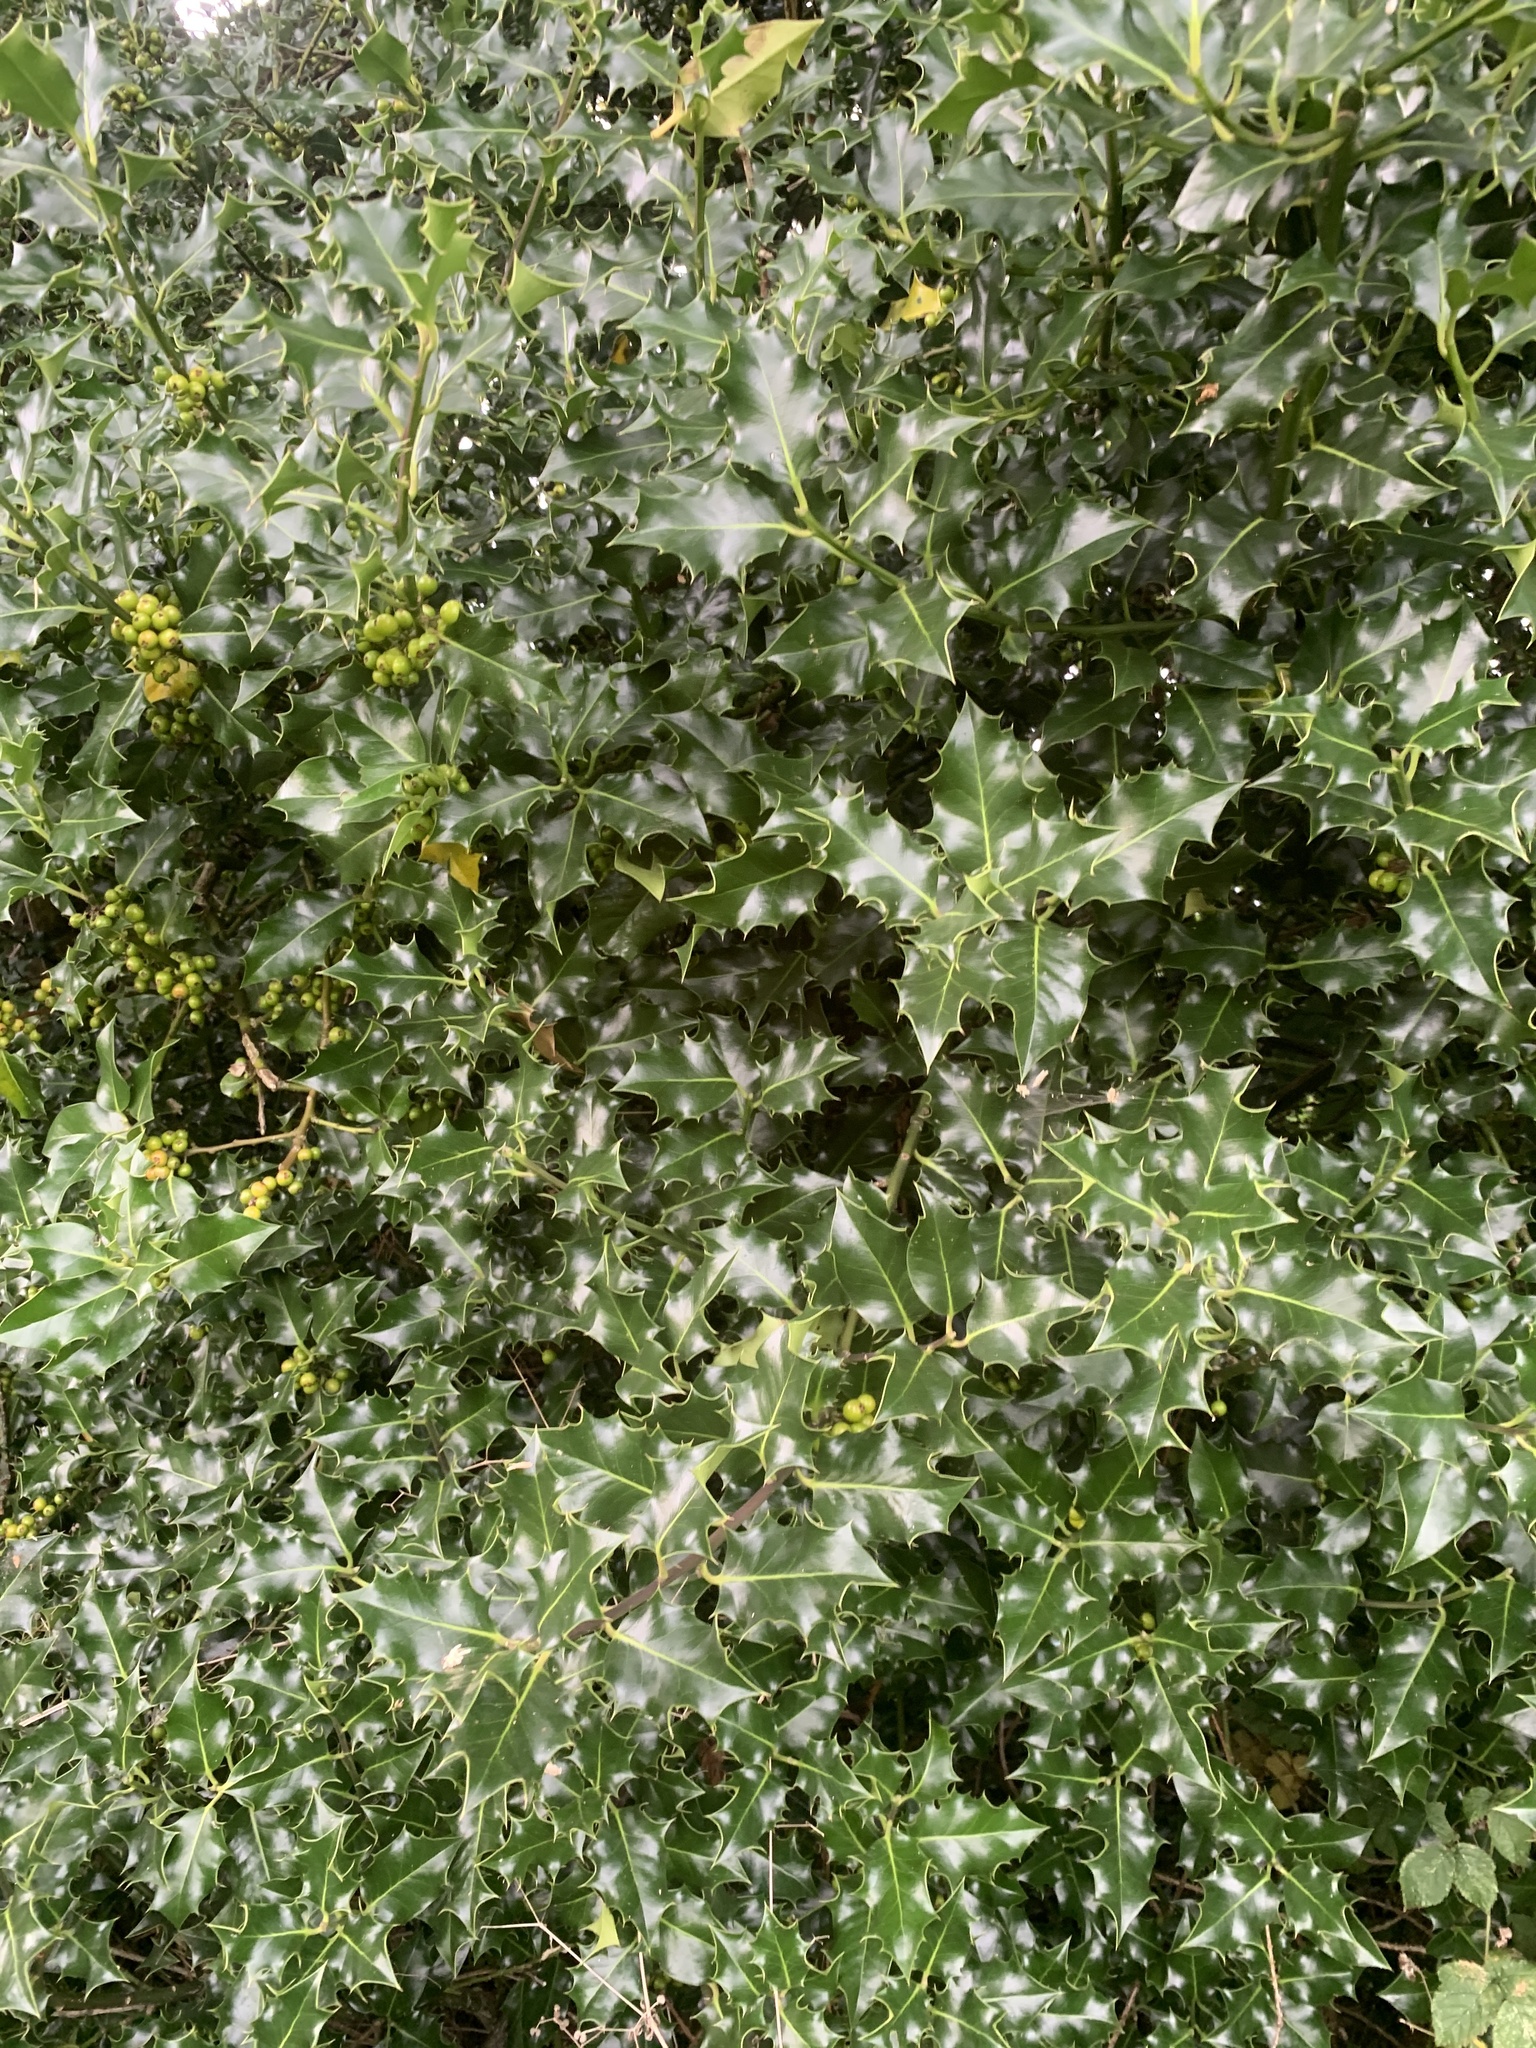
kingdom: Plantae
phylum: Tracheophyta
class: Magnoliopsida
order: Aquifoliales
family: Aquifoliaceae
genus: Ilex
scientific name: Ilex aquifolium
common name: English holly
